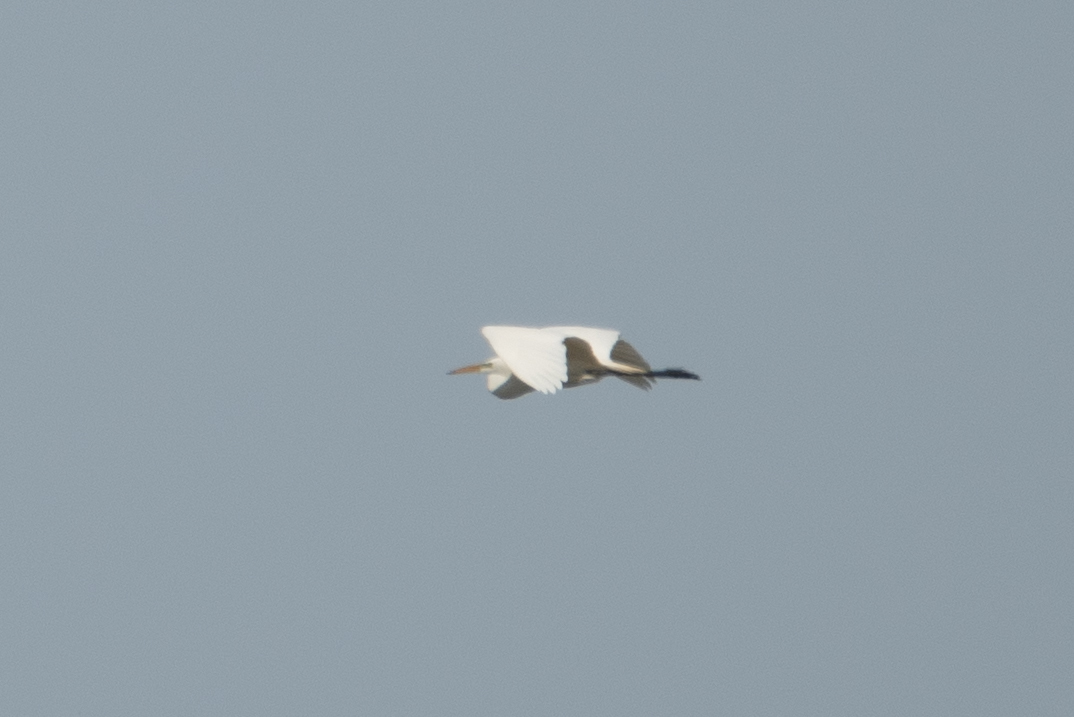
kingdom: Animalia
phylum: Chordata
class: Aves
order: Pelecaniformes
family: Ardeidae
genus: Ardea
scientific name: Ardea alba
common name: Great egret
